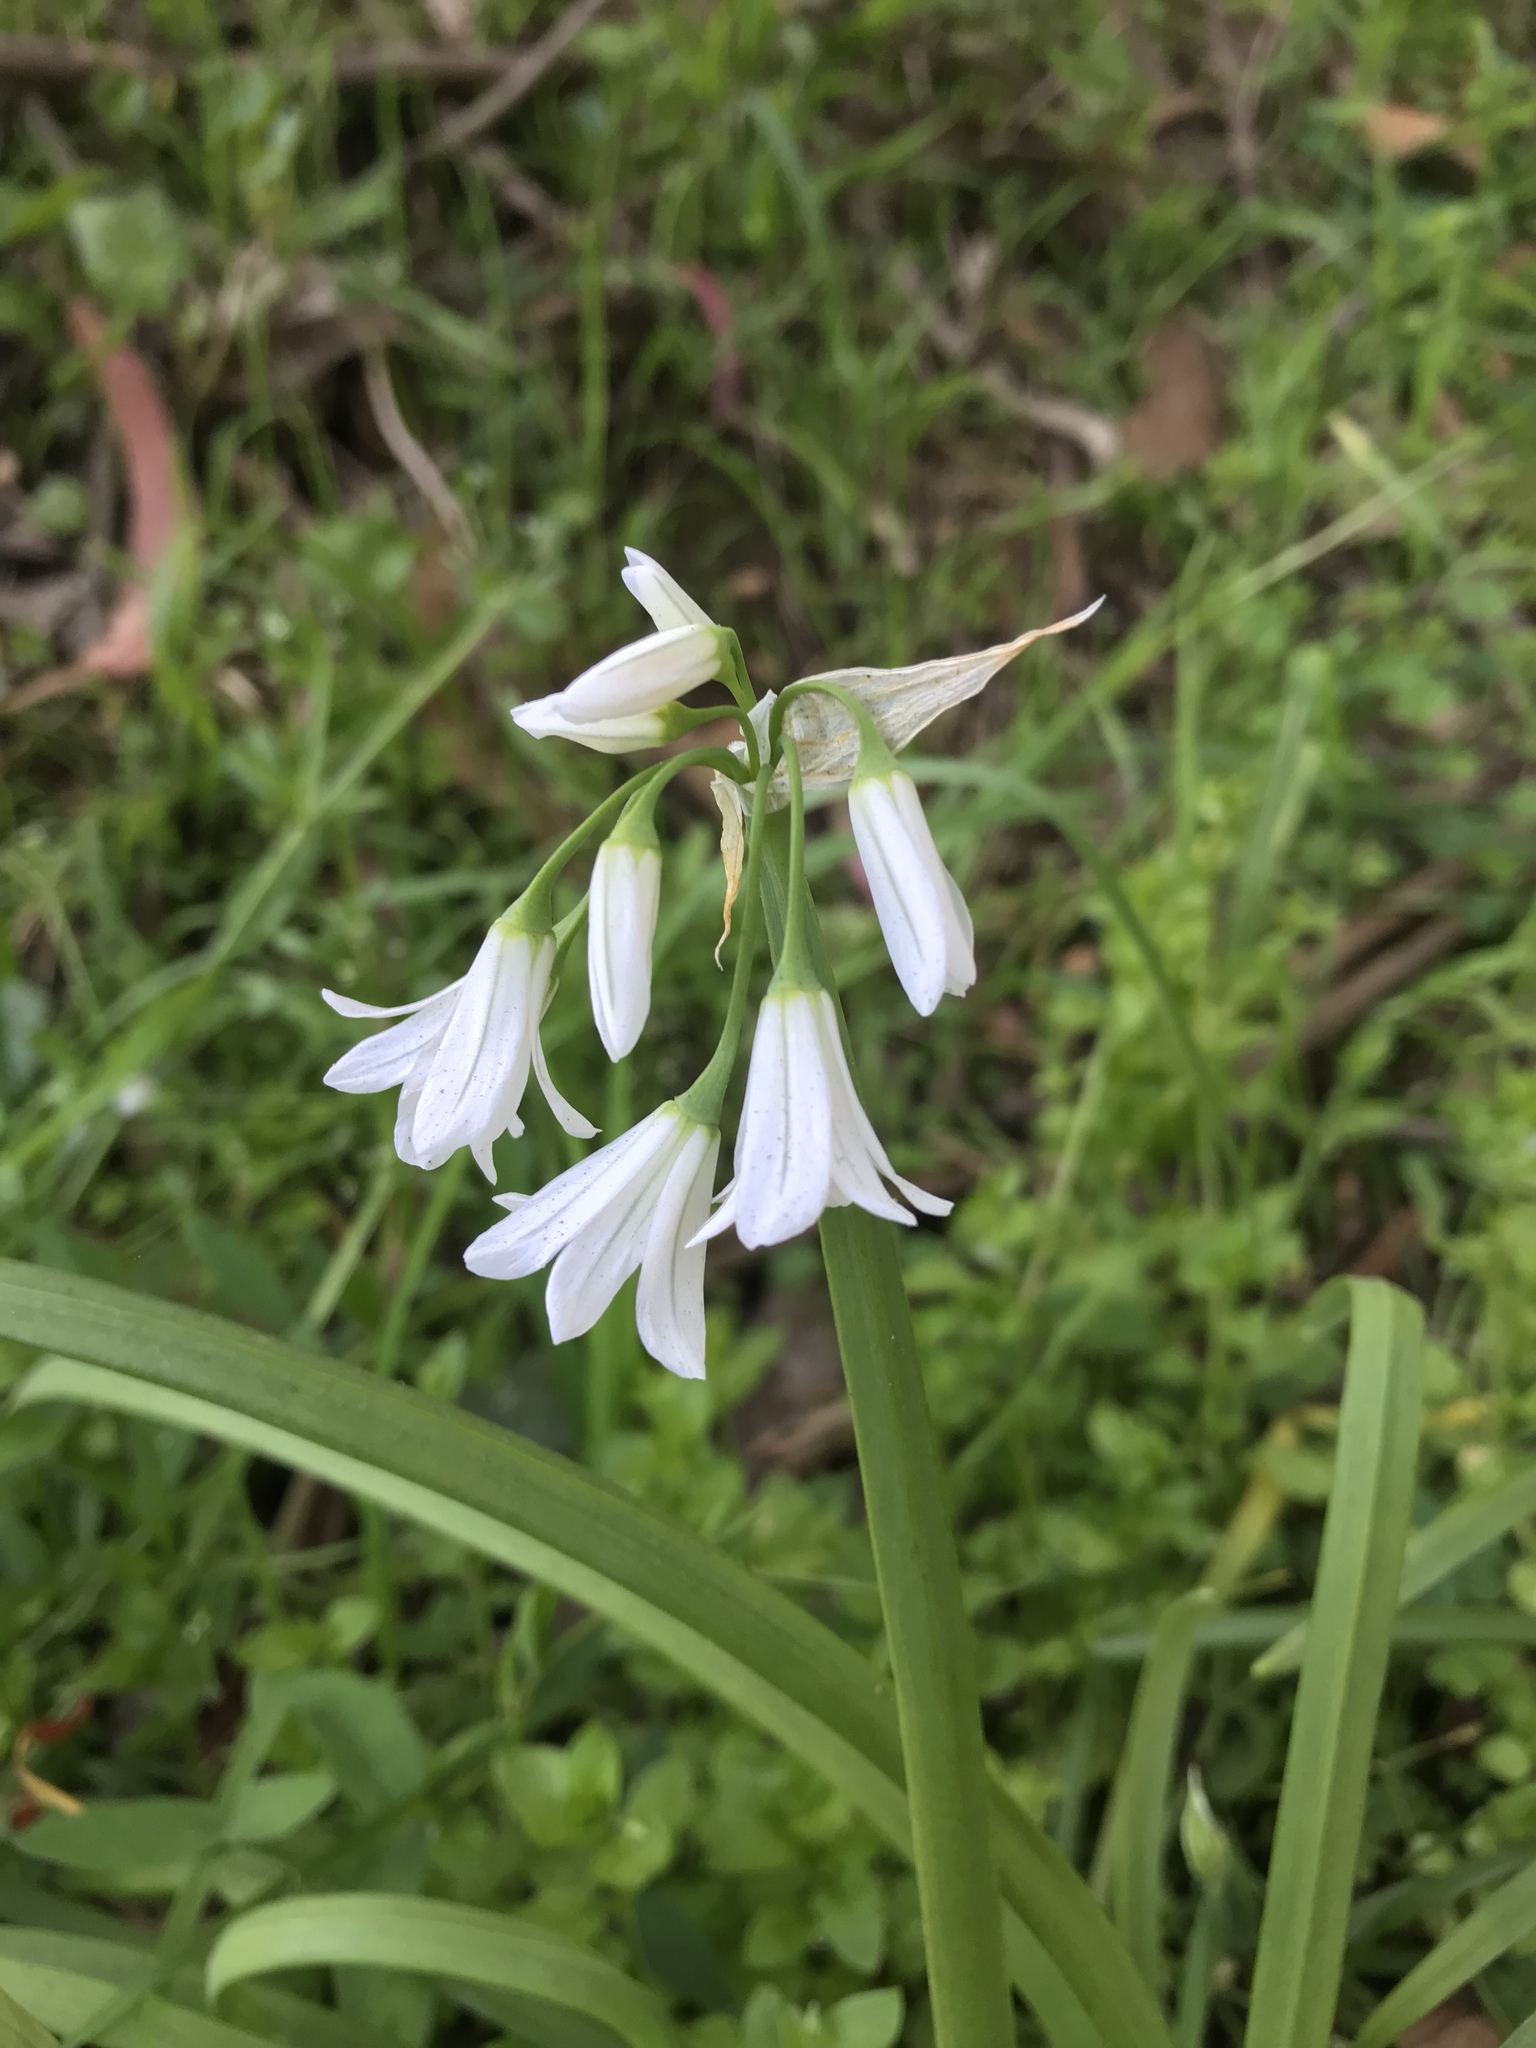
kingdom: Plantae
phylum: Tracheophyta
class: Liliopsida
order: Asparagales
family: Amaryllidaceae
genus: Allium
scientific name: Allium triquetrum
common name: Three-cornered garlic
